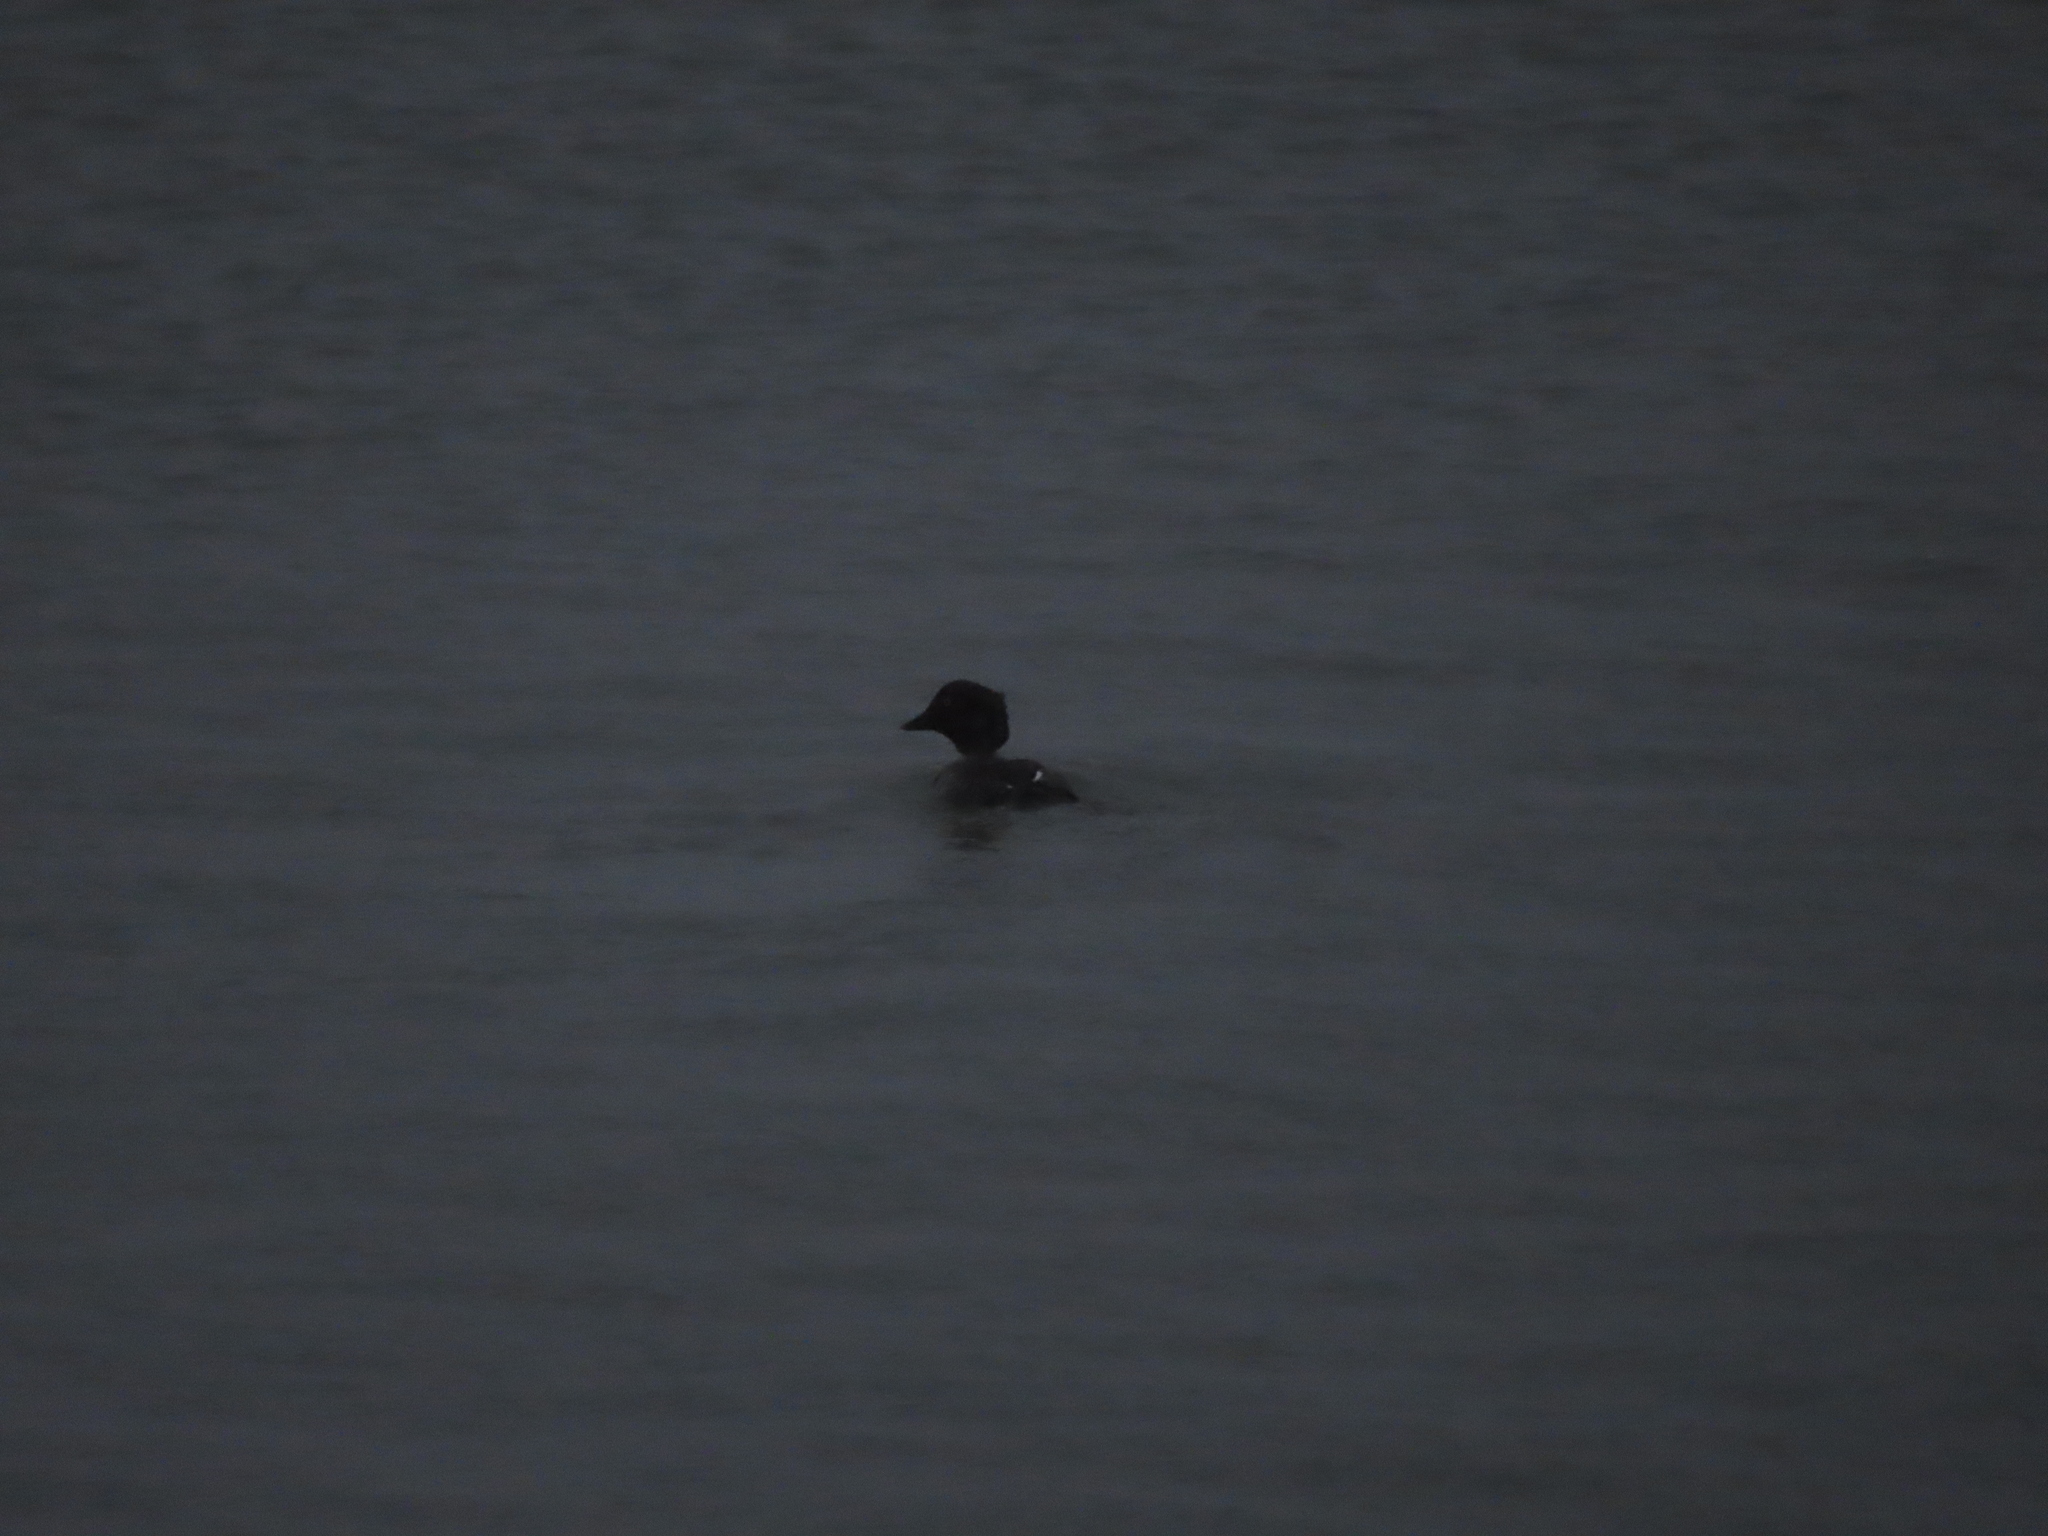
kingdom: Animalia
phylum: Chordata
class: Aves
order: Anseriformes
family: Anatidae
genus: Bucephala
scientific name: Bucephala clangula
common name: Common goldeneye
